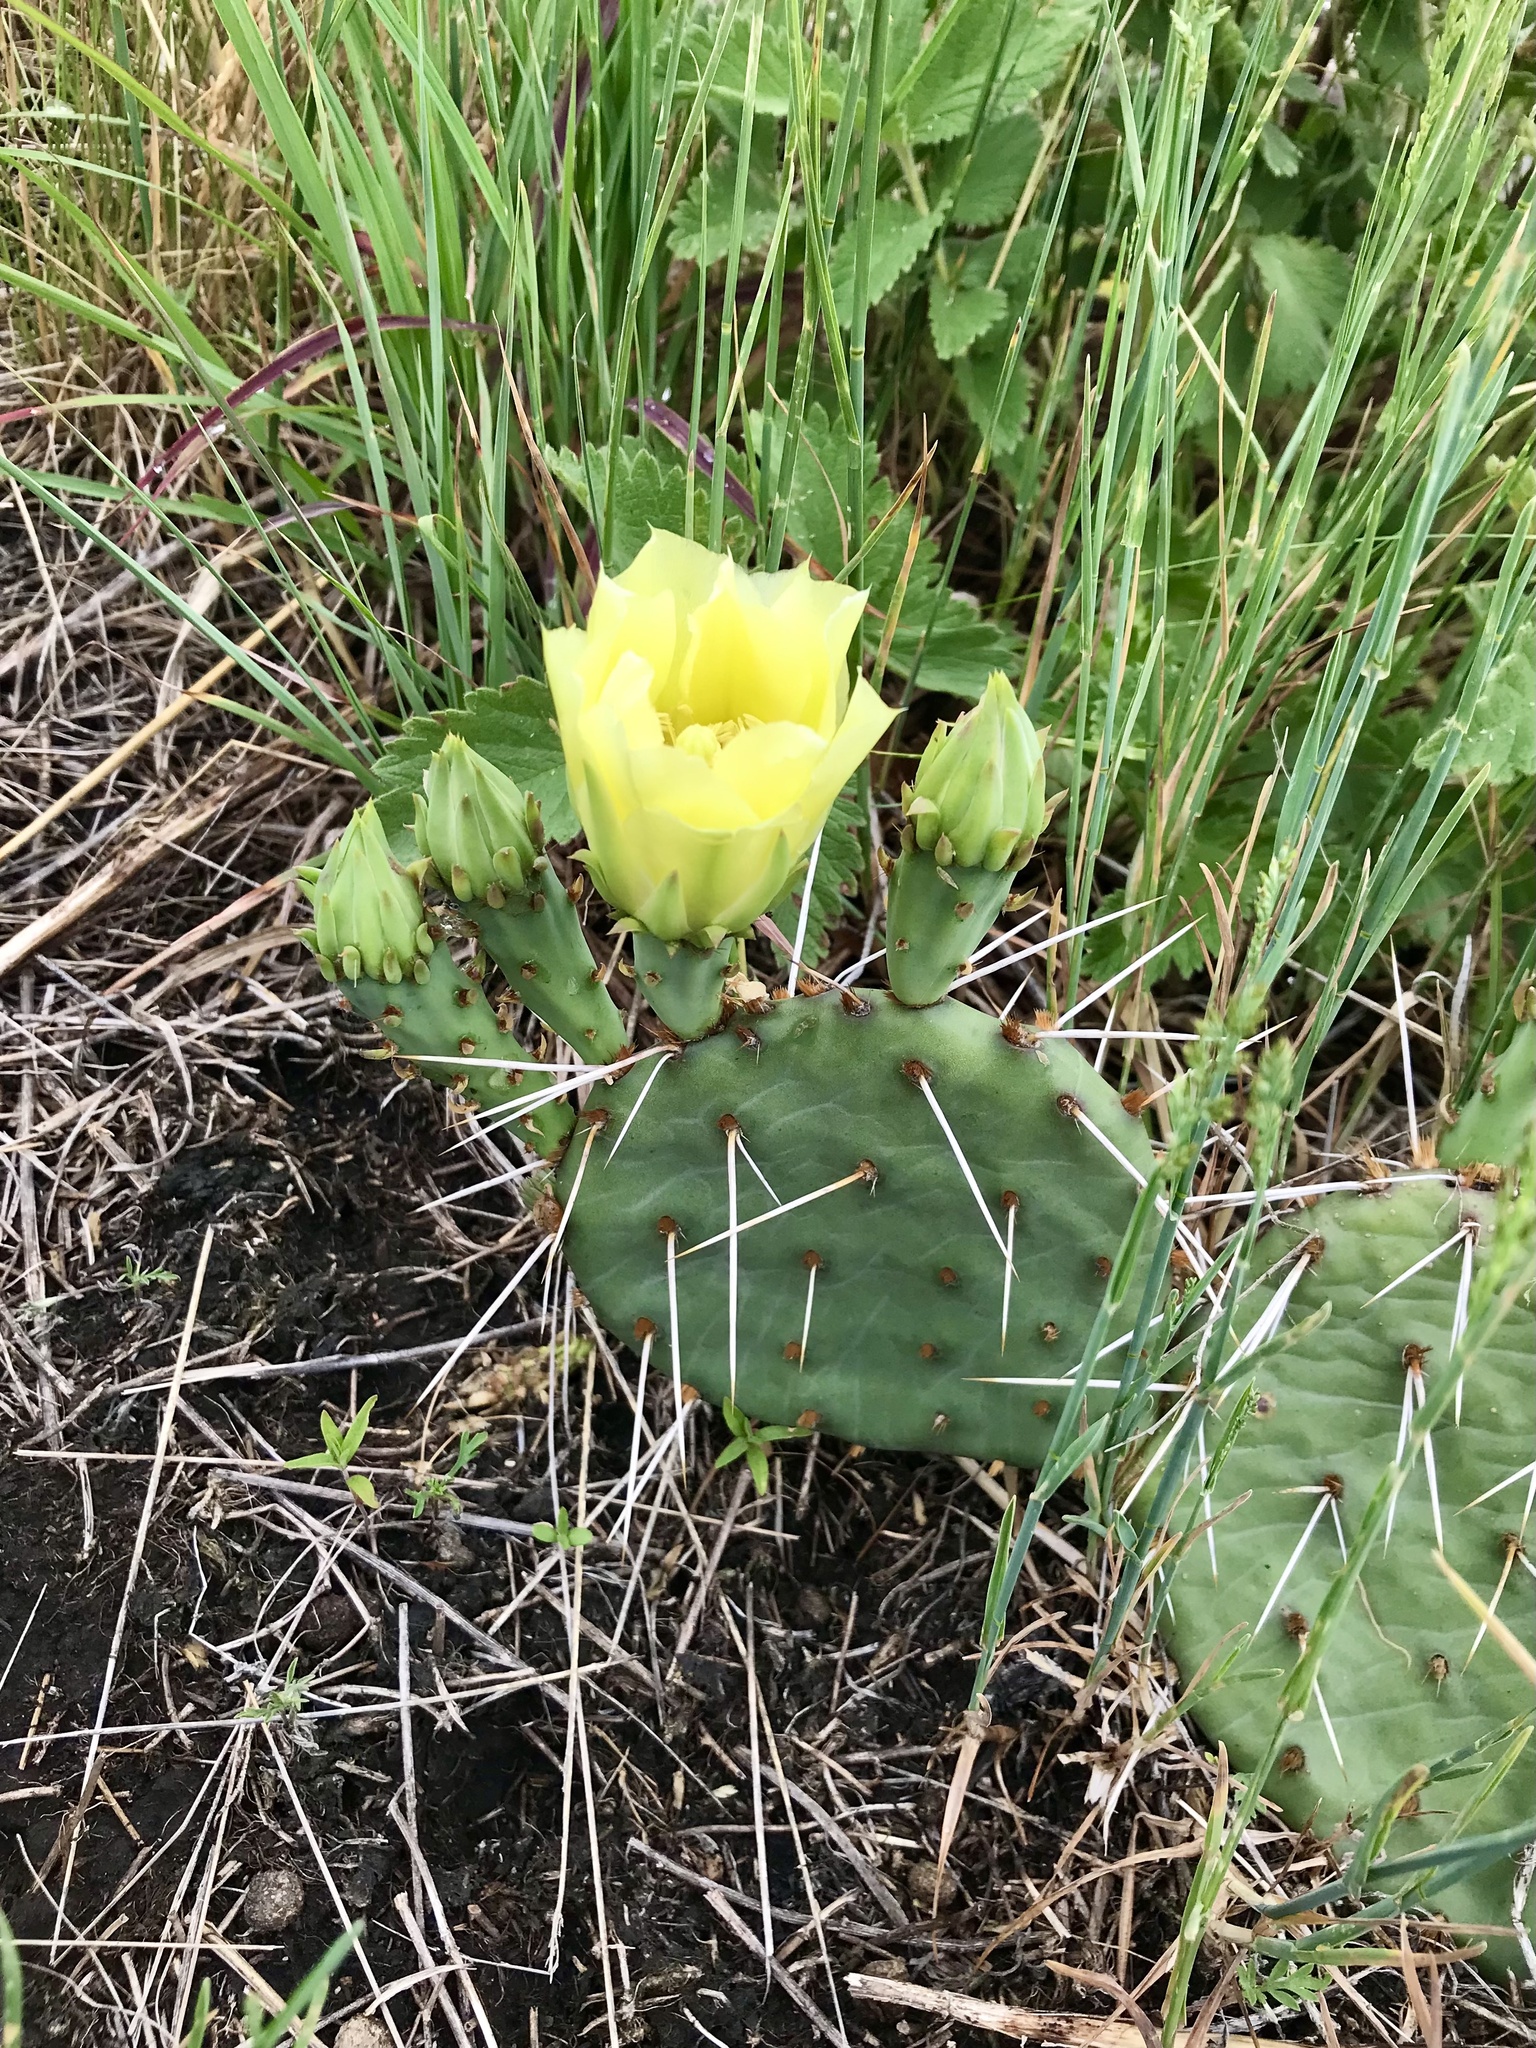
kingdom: Plantae
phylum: Tracheophyta
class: Magnoliopsida
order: Caryophyllales
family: Cactaceae
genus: Opuntia
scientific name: Opuntia macrorhiza
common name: Grassland pricklypear
